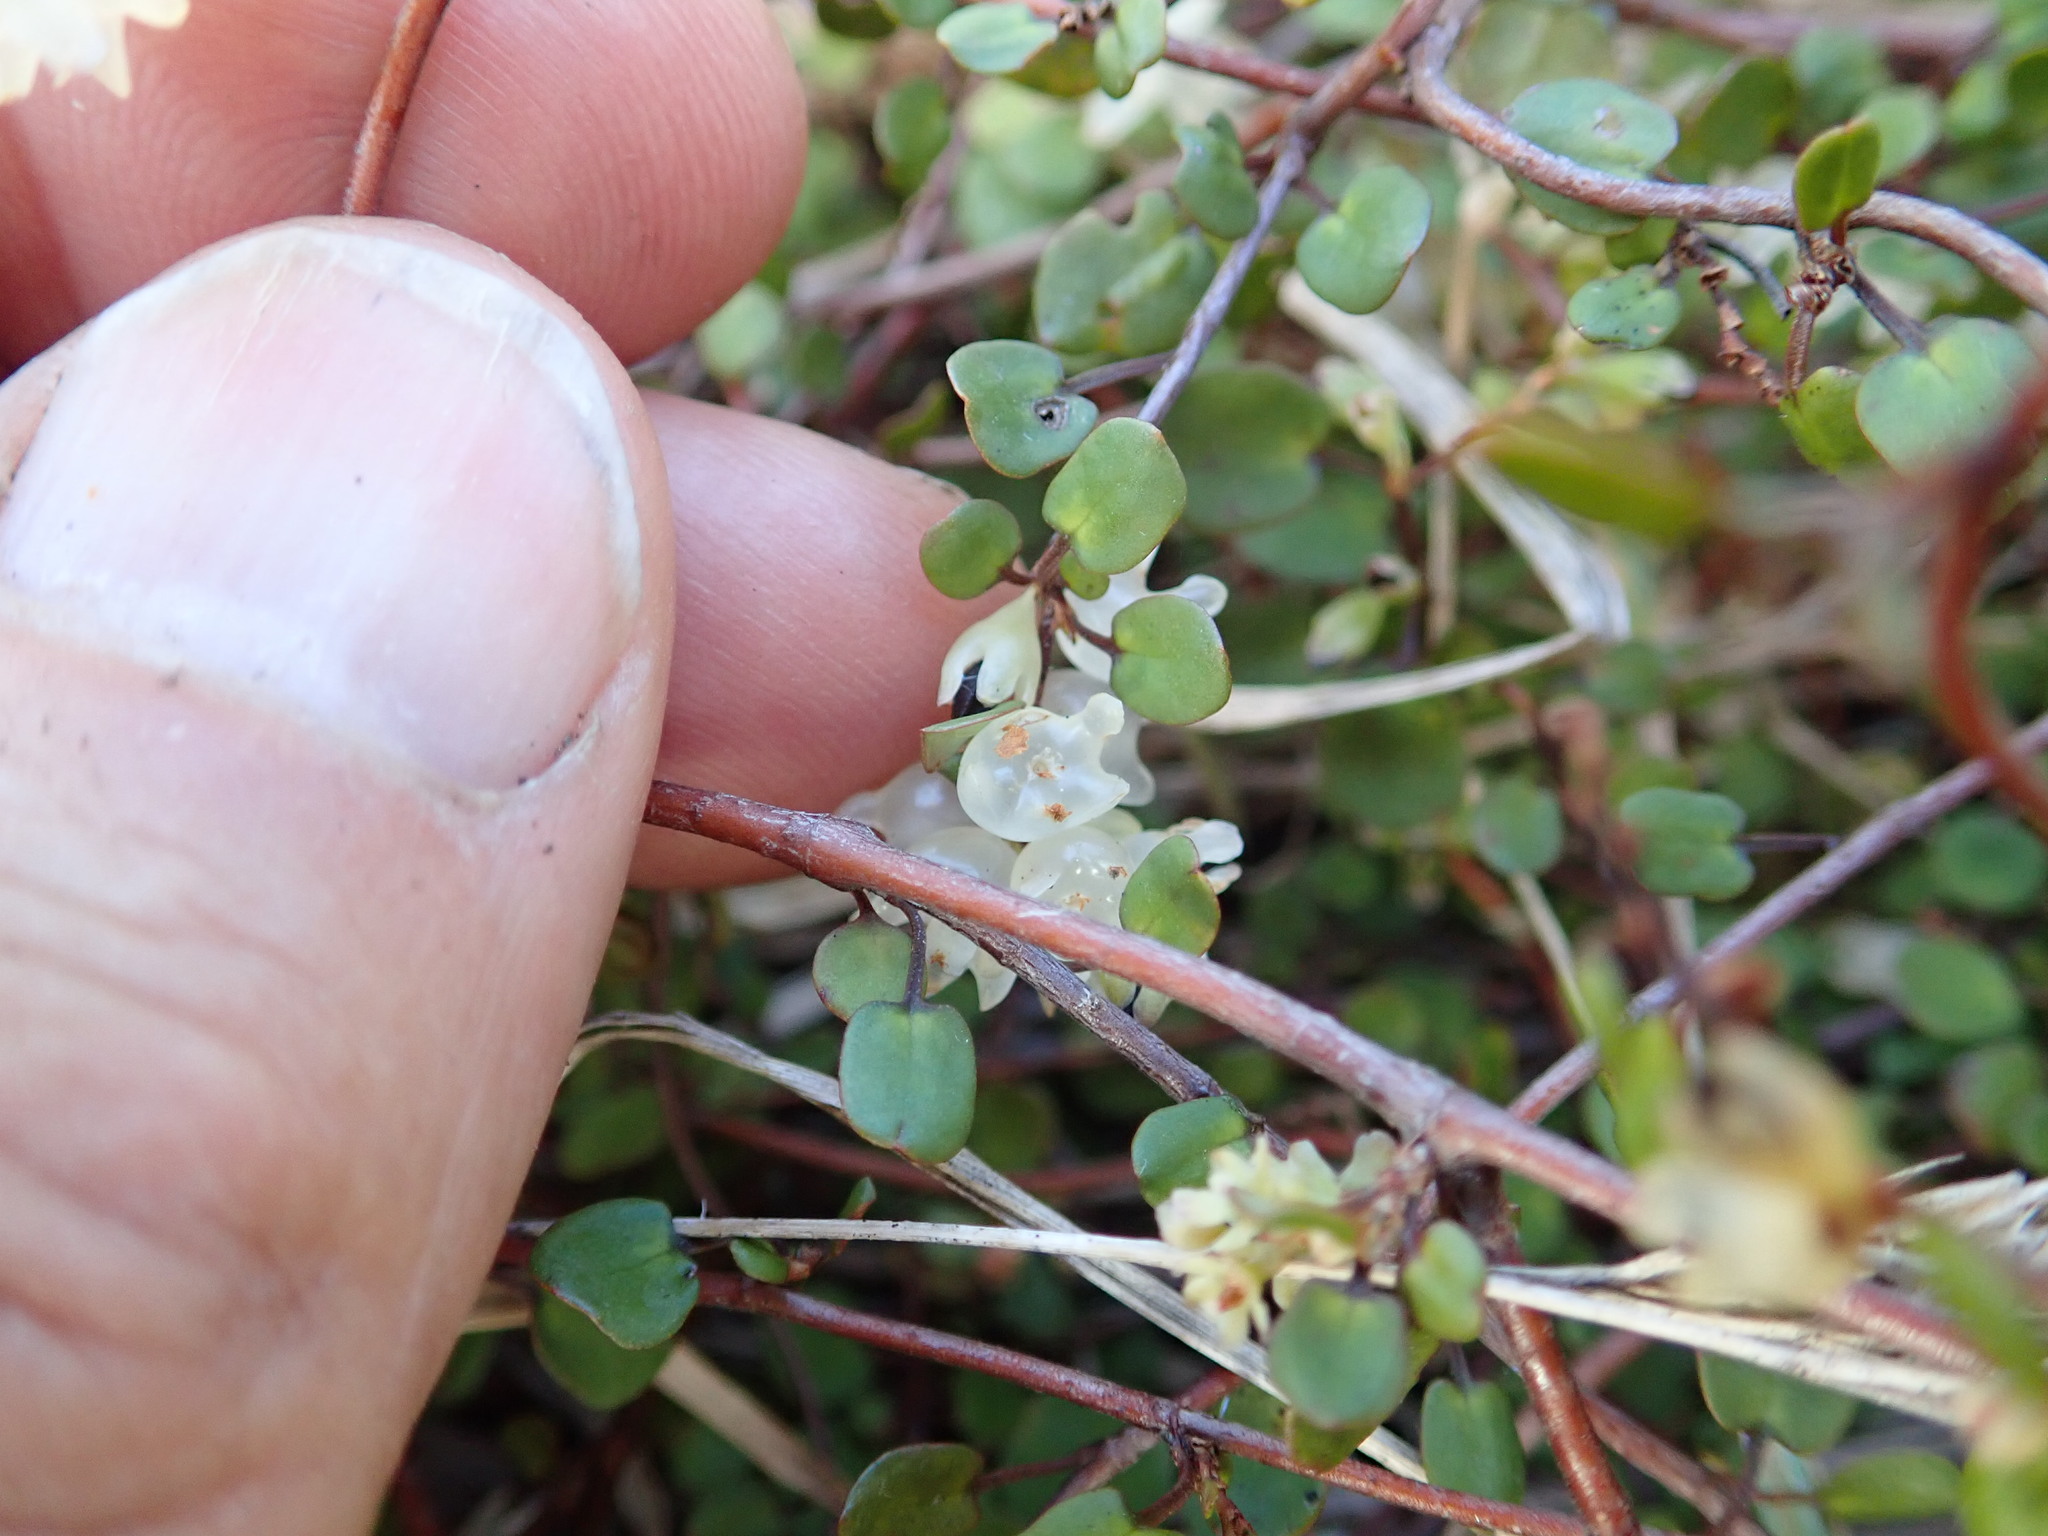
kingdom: Plantae
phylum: Tracheophyta
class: Magnoliopsida
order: Caryophyllales
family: Polygonaceae
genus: Muehlenbeckia
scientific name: Muehlenbeckia complexa
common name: Wireplant
